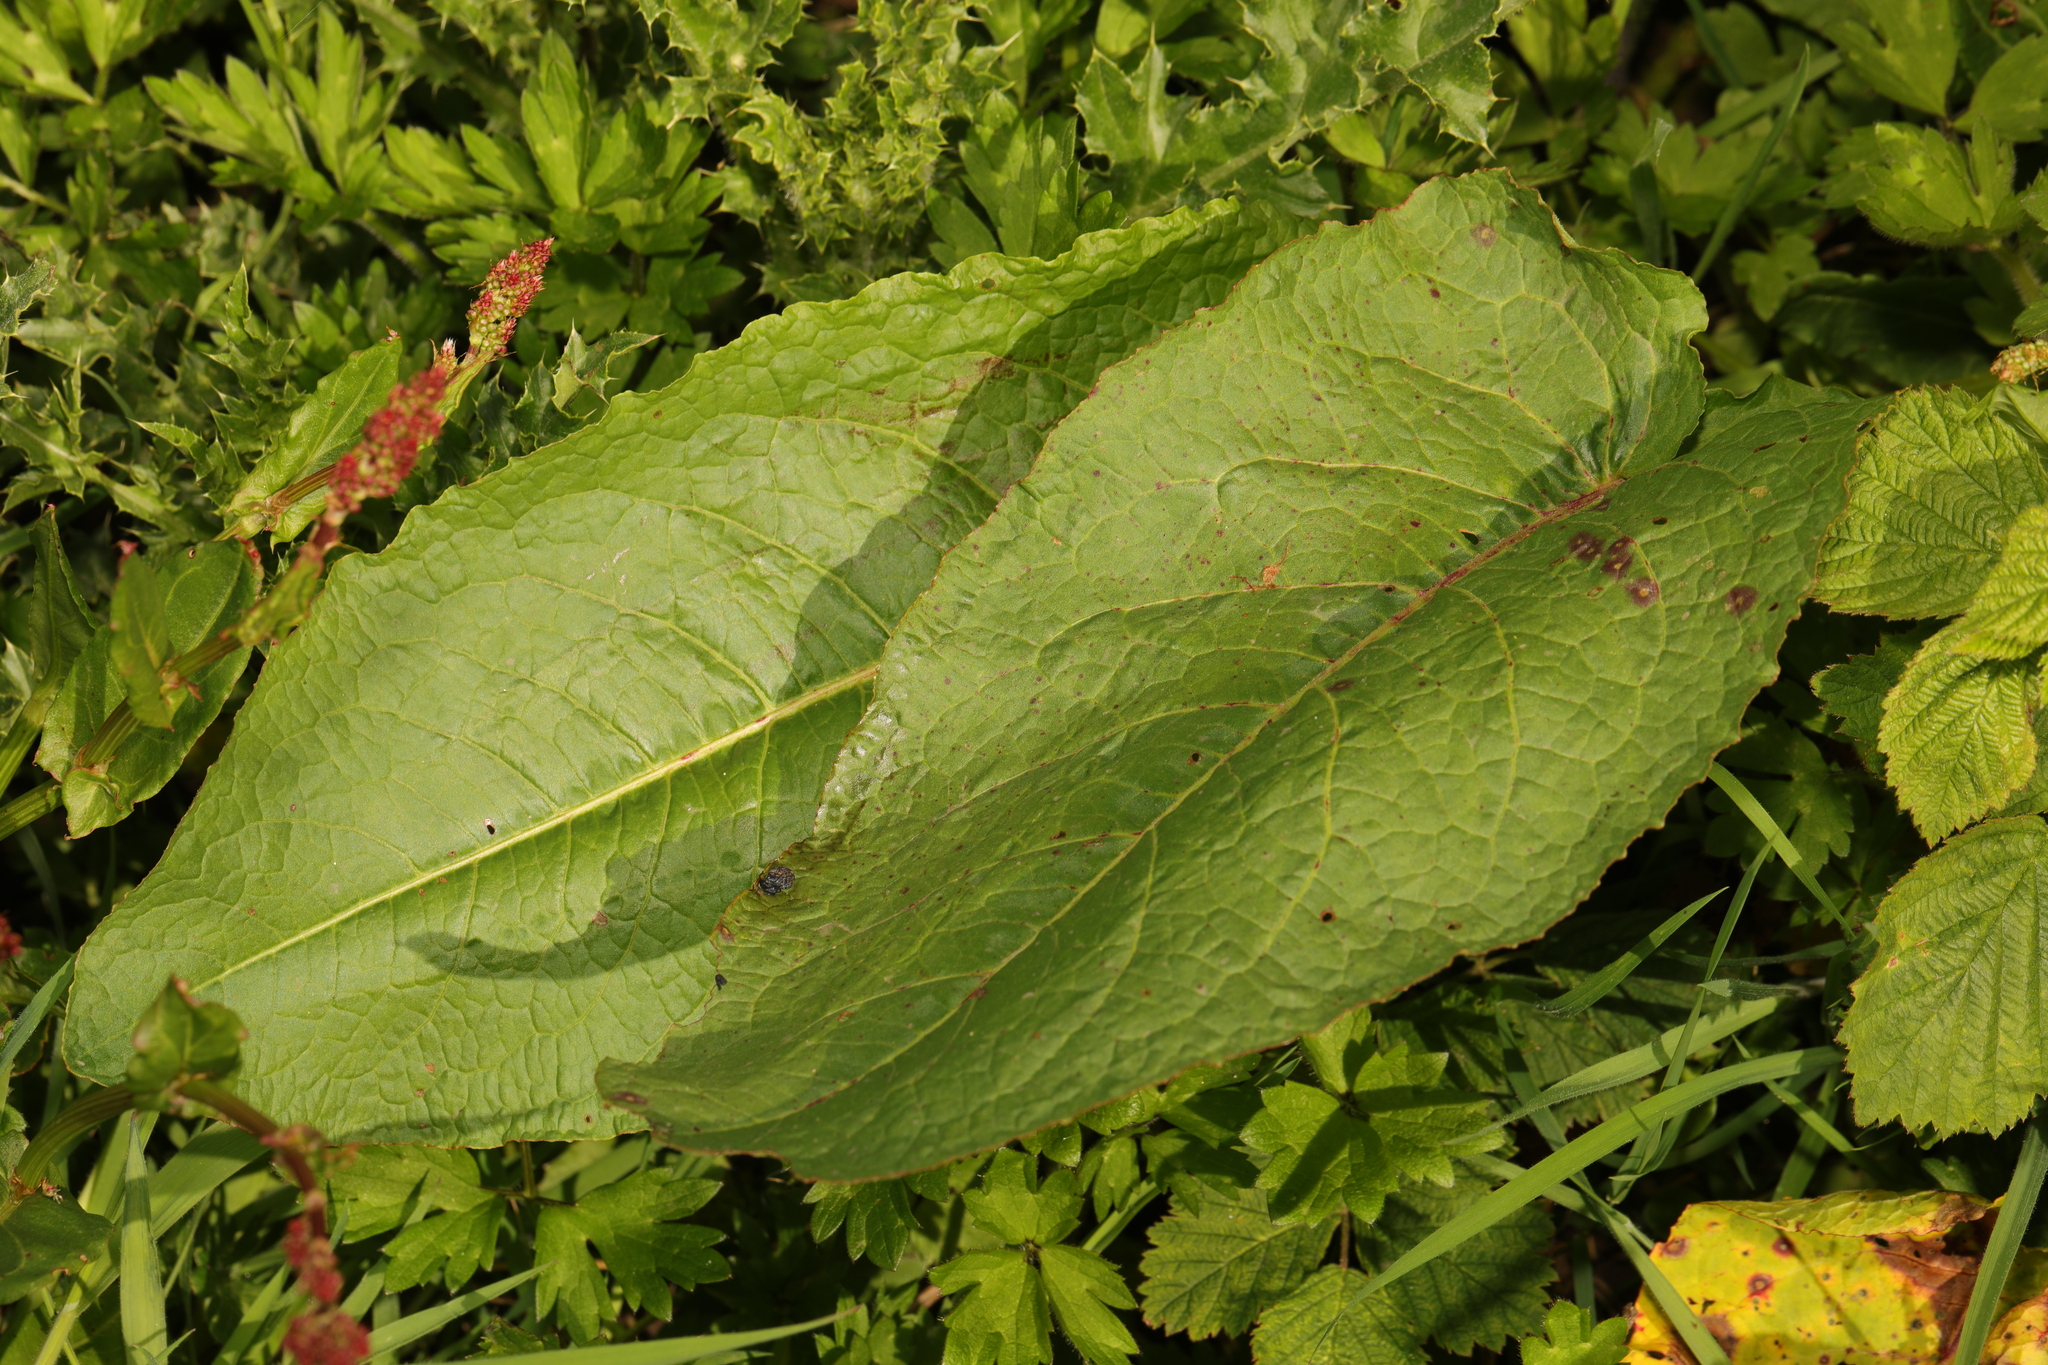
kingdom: Plantae
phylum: Tracheophyta
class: Magnoliopsida
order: Caryophyllales
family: Polygonaceae
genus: Rumex
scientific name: Rumex obtusifolius
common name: Bitter dock
